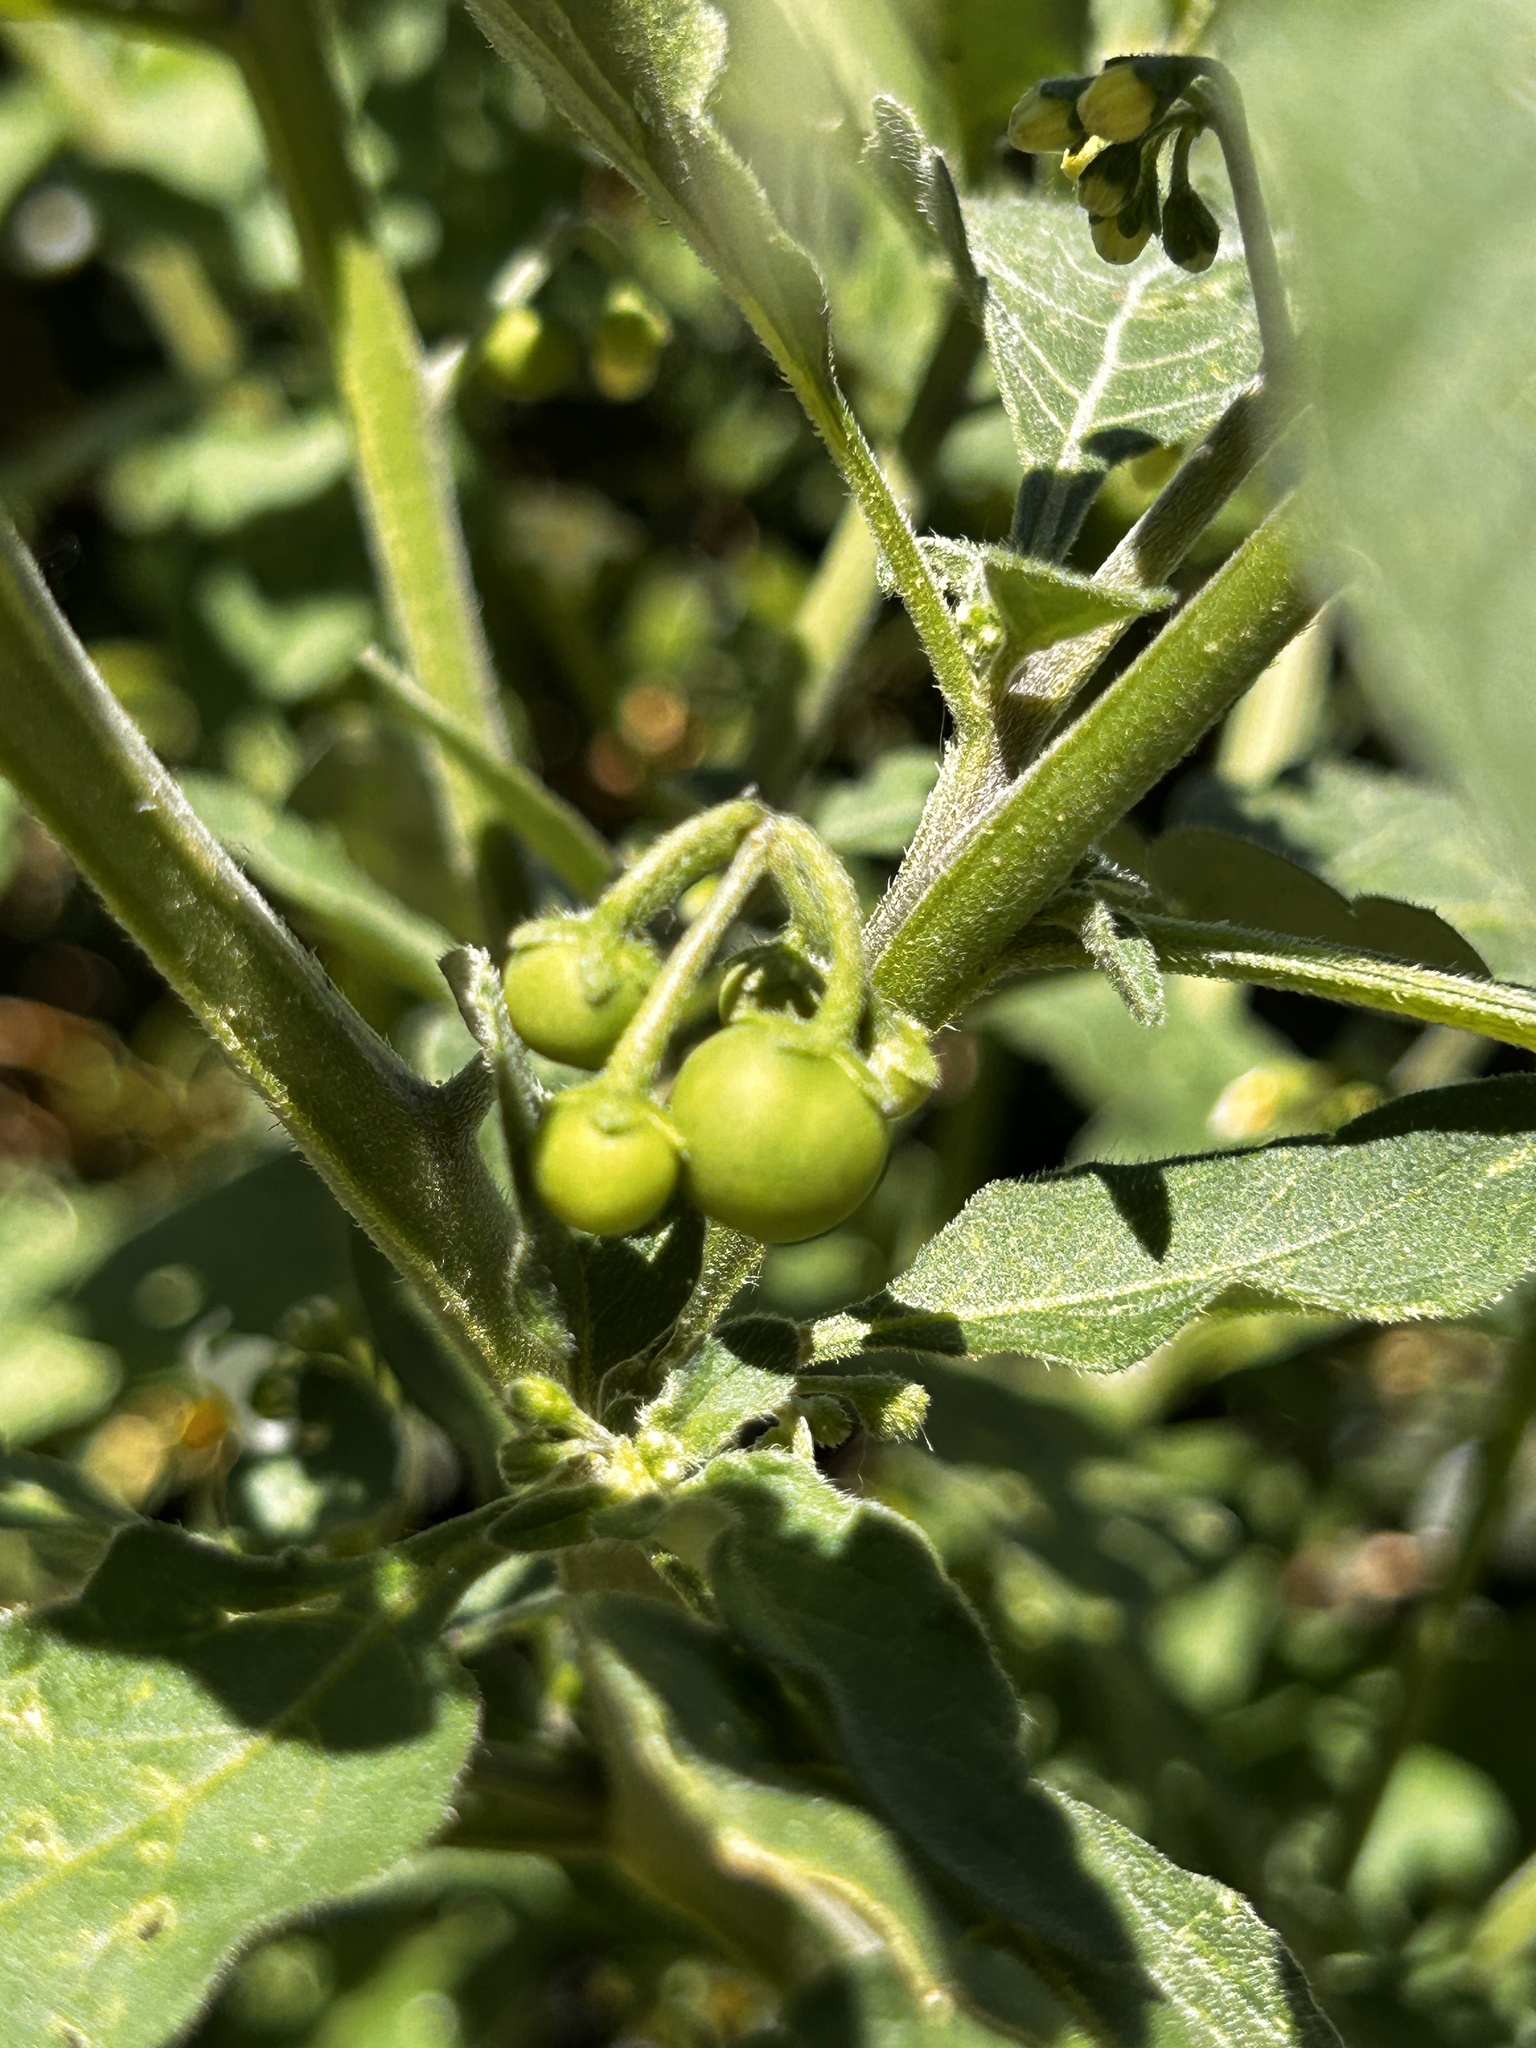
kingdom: Plantae
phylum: Tracheophyta
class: Magnoliopsida
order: Solanales
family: Solanaceae
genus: Solanum
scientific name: Solanum nigrum
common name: Black nightshade
